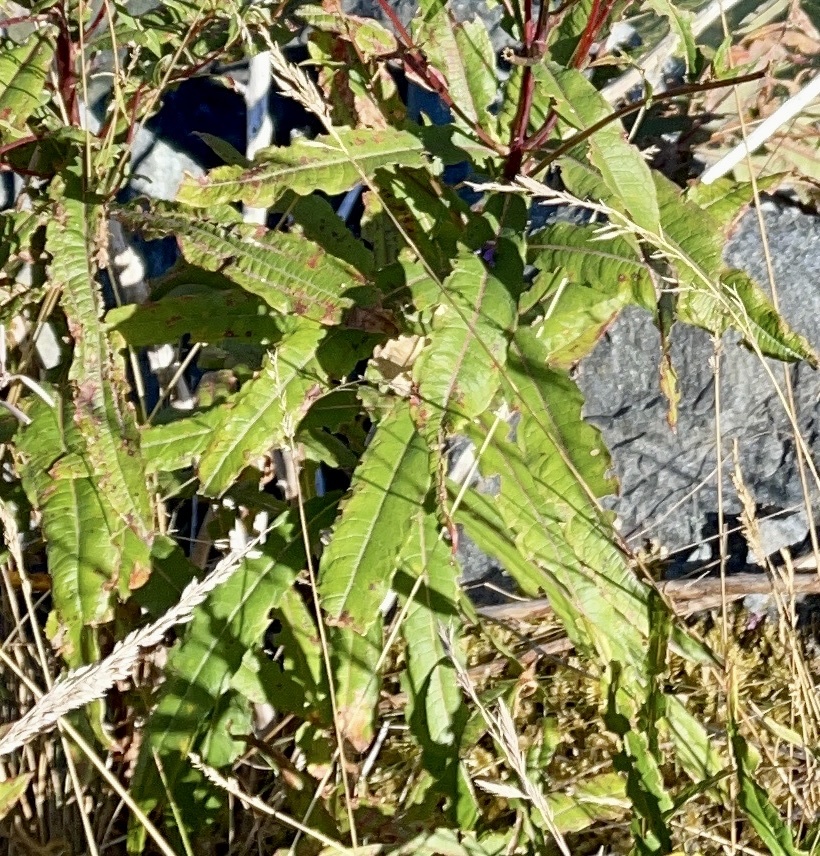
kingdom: Plantae
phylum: Tracheophyta
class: Magnoliopsida
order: Myrtales
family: Onagraceae
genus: Chamaenerion
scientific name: Chamaenerion angustifolium
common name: Fireweed
